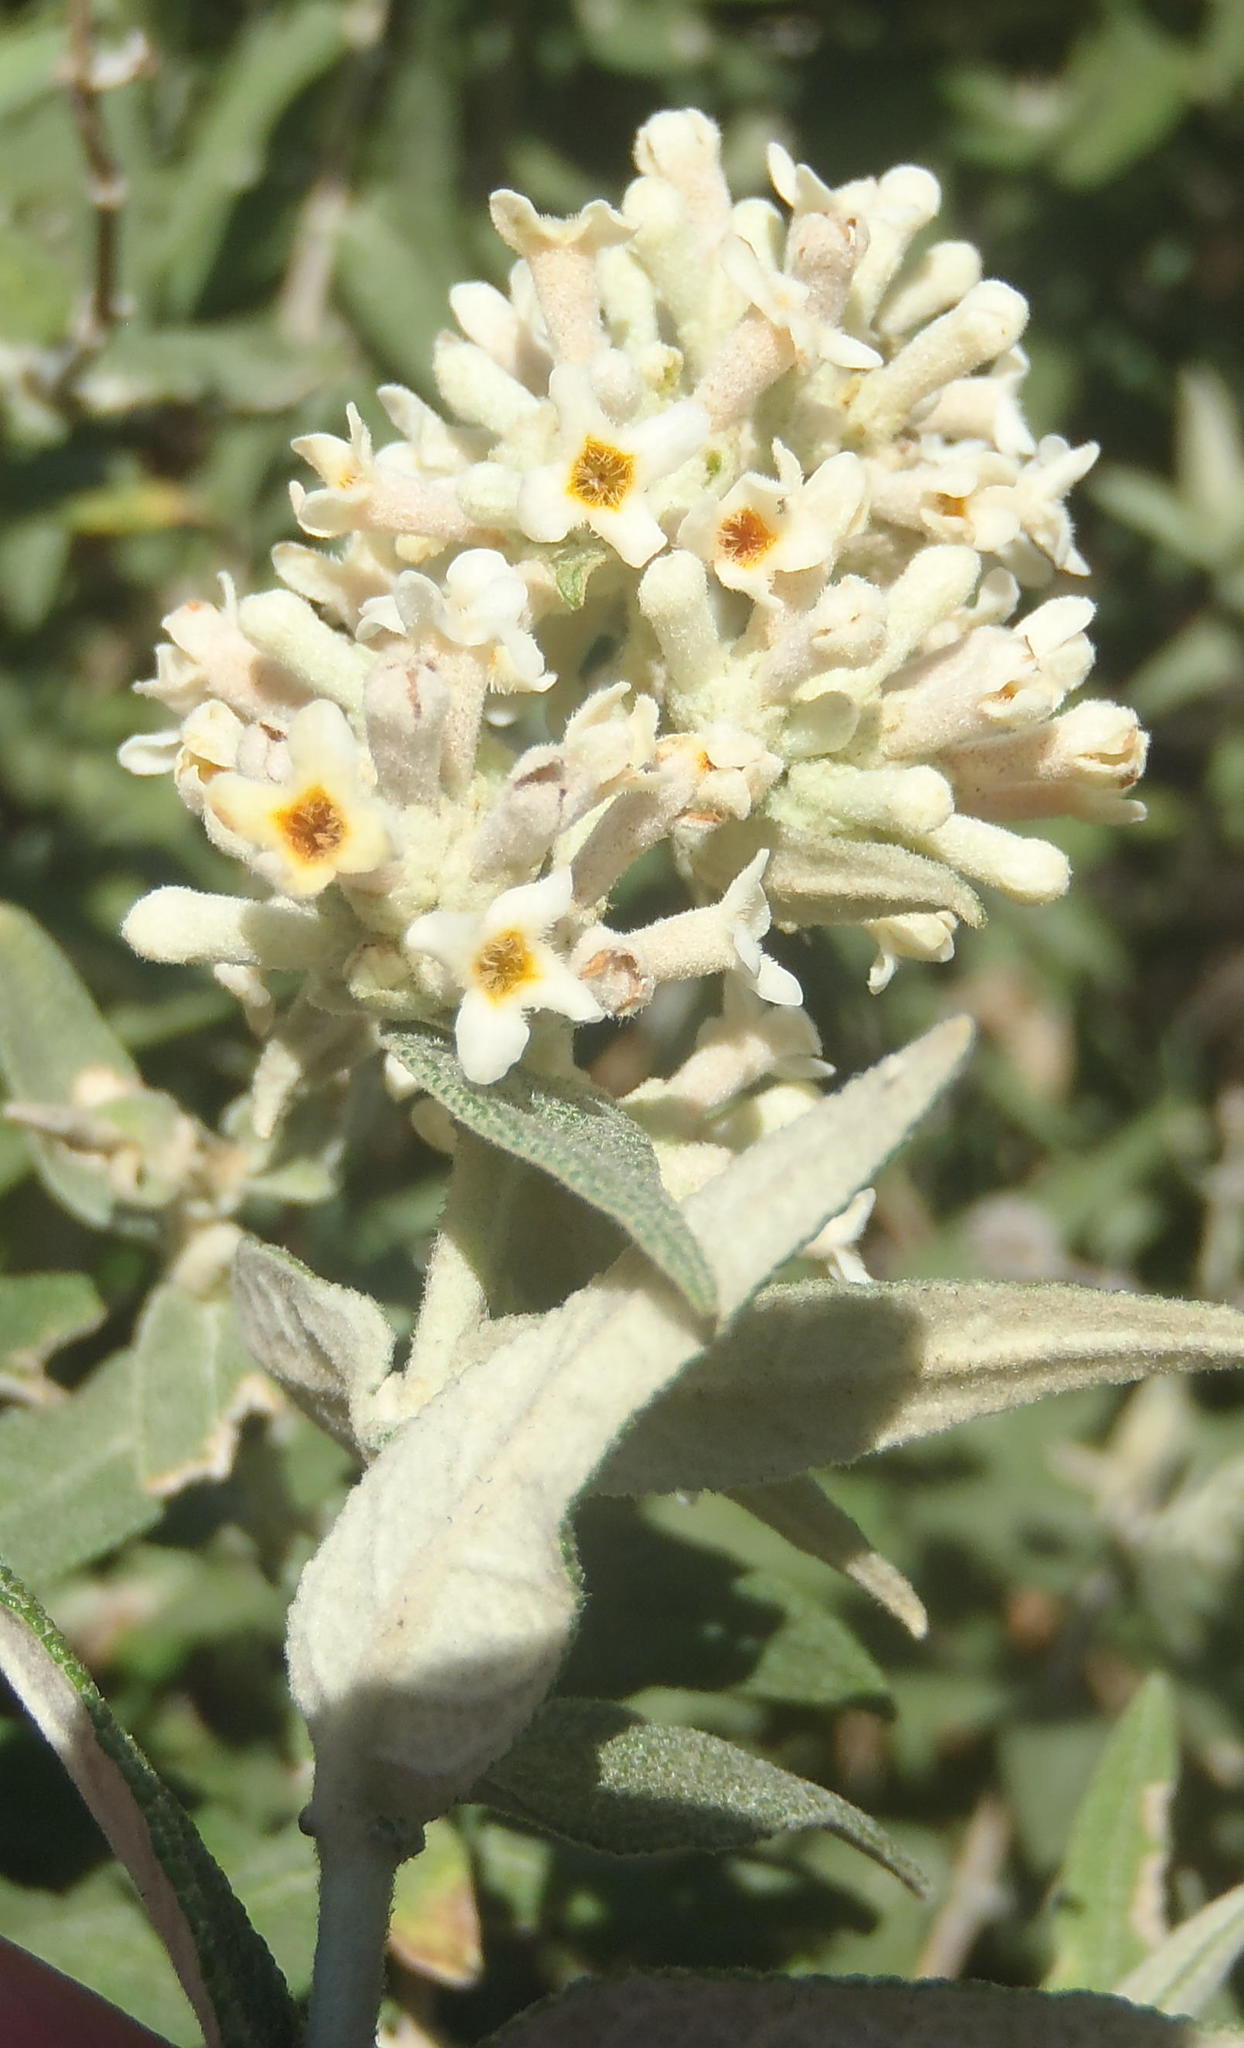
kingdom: Plantae
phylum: Tracheophyta
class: Magnoliopsida
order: Lamiales
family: Scrophulariaceae
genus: Buddleja
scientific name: Buddleja salviifolia
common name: Sagewood
